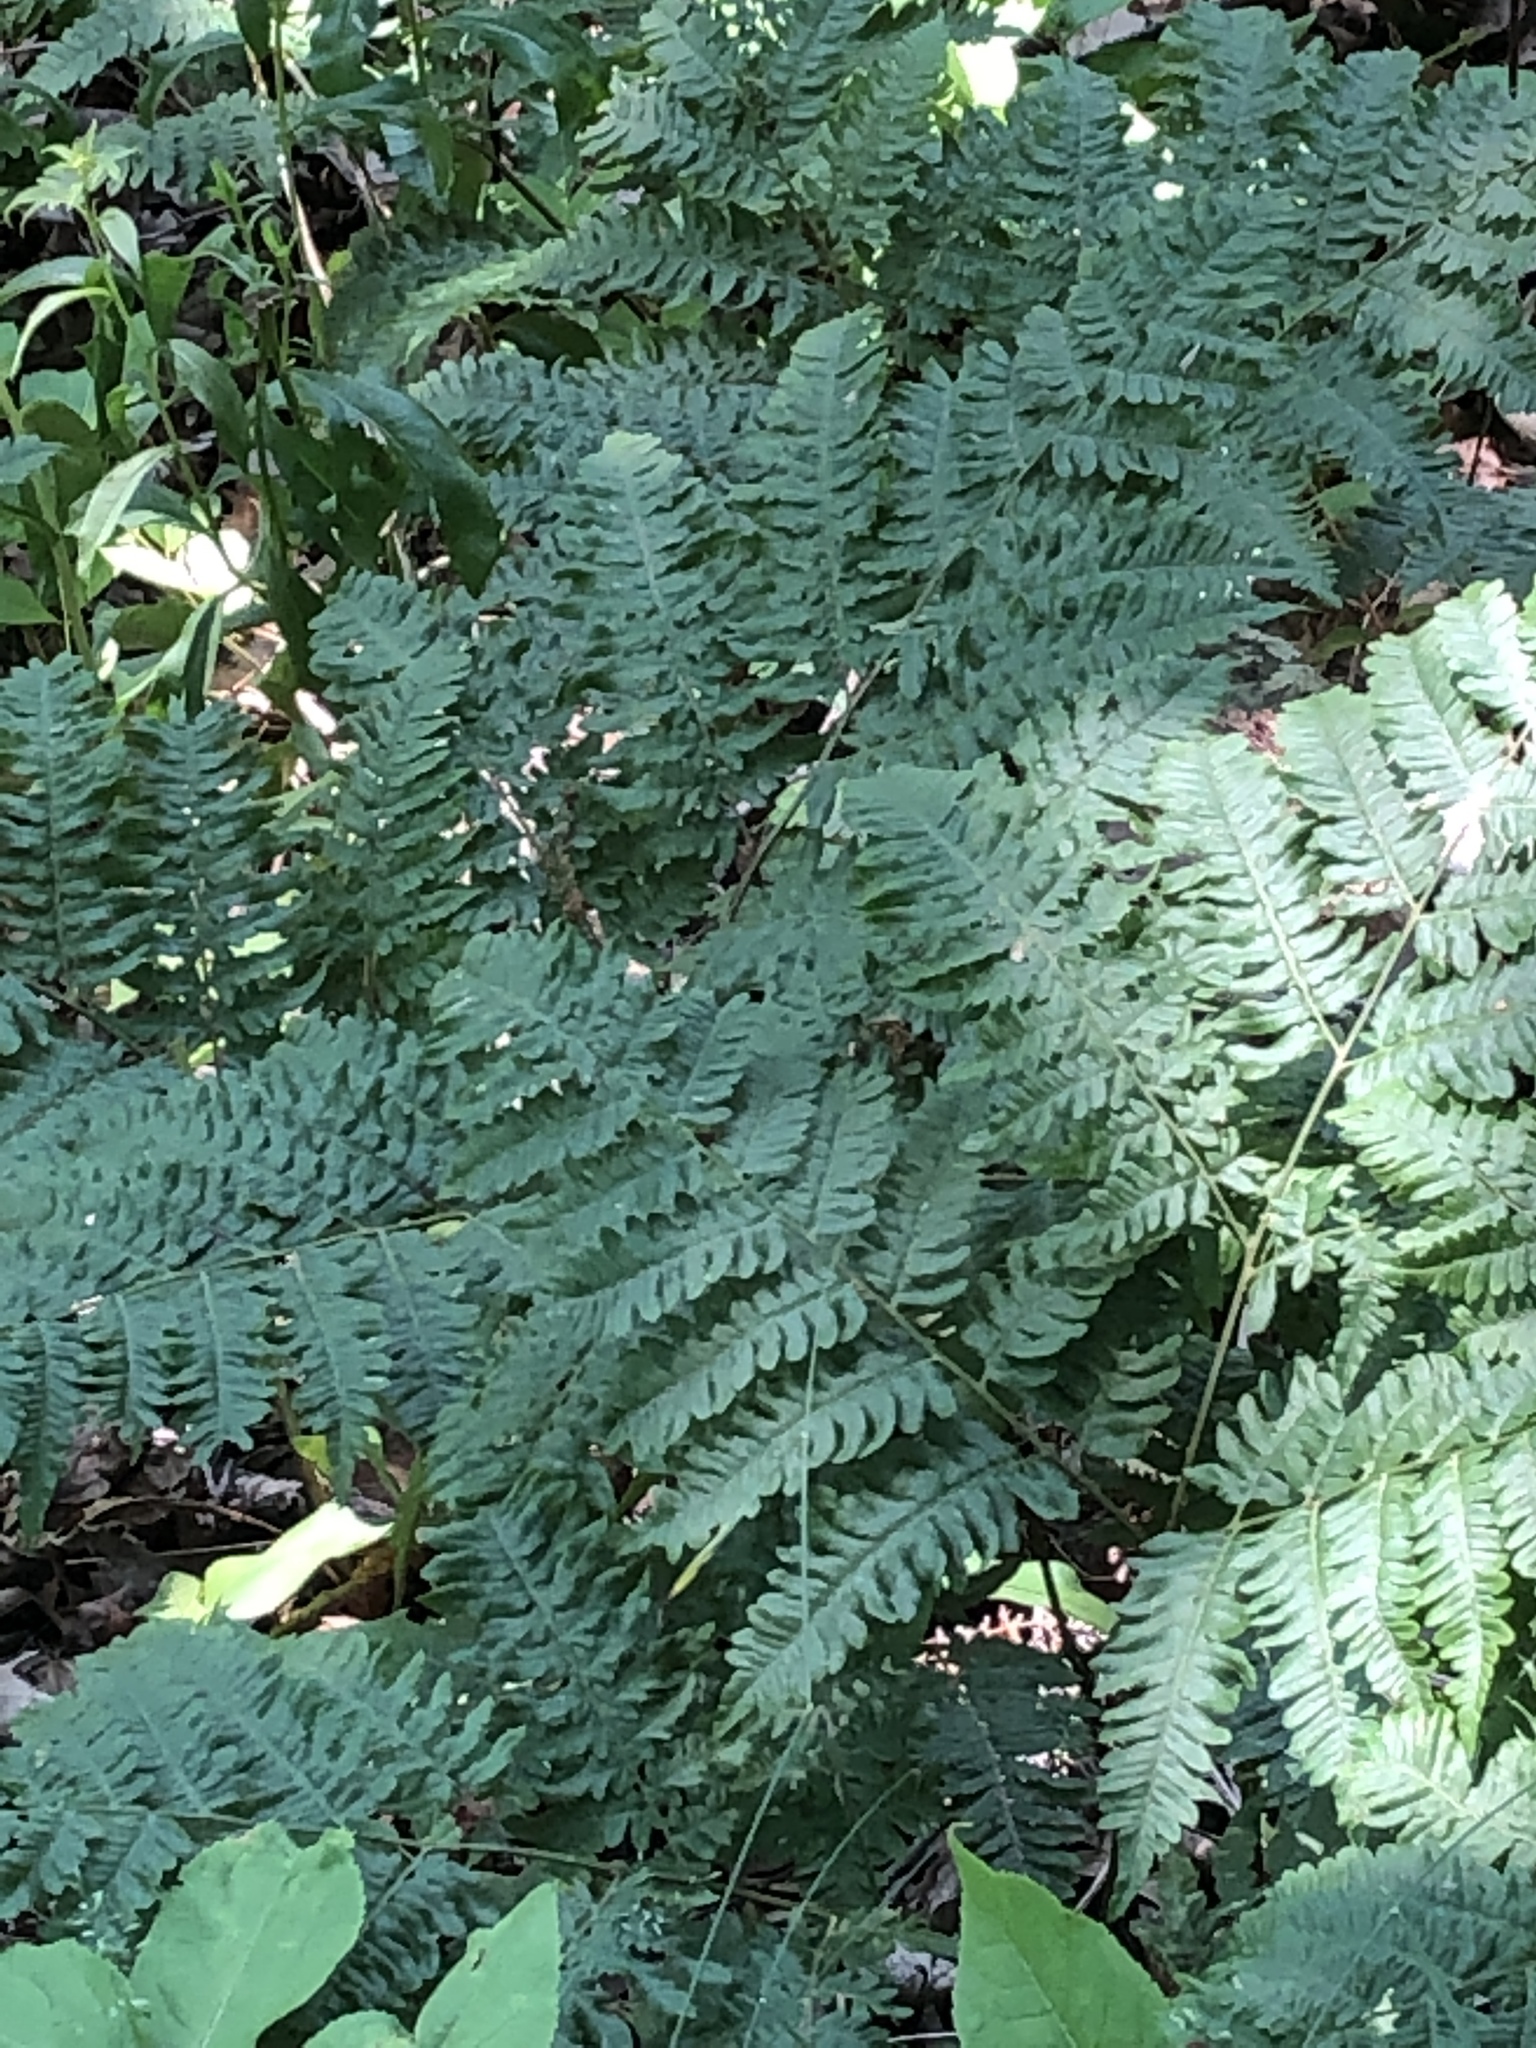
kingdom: Plantae
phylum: Tracheophyta
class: Polypodiopsida
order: Polypodiales
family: Dennstaedtiaceae
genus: Pteridium
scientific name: Pteridium aquilinum
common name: Bracken
